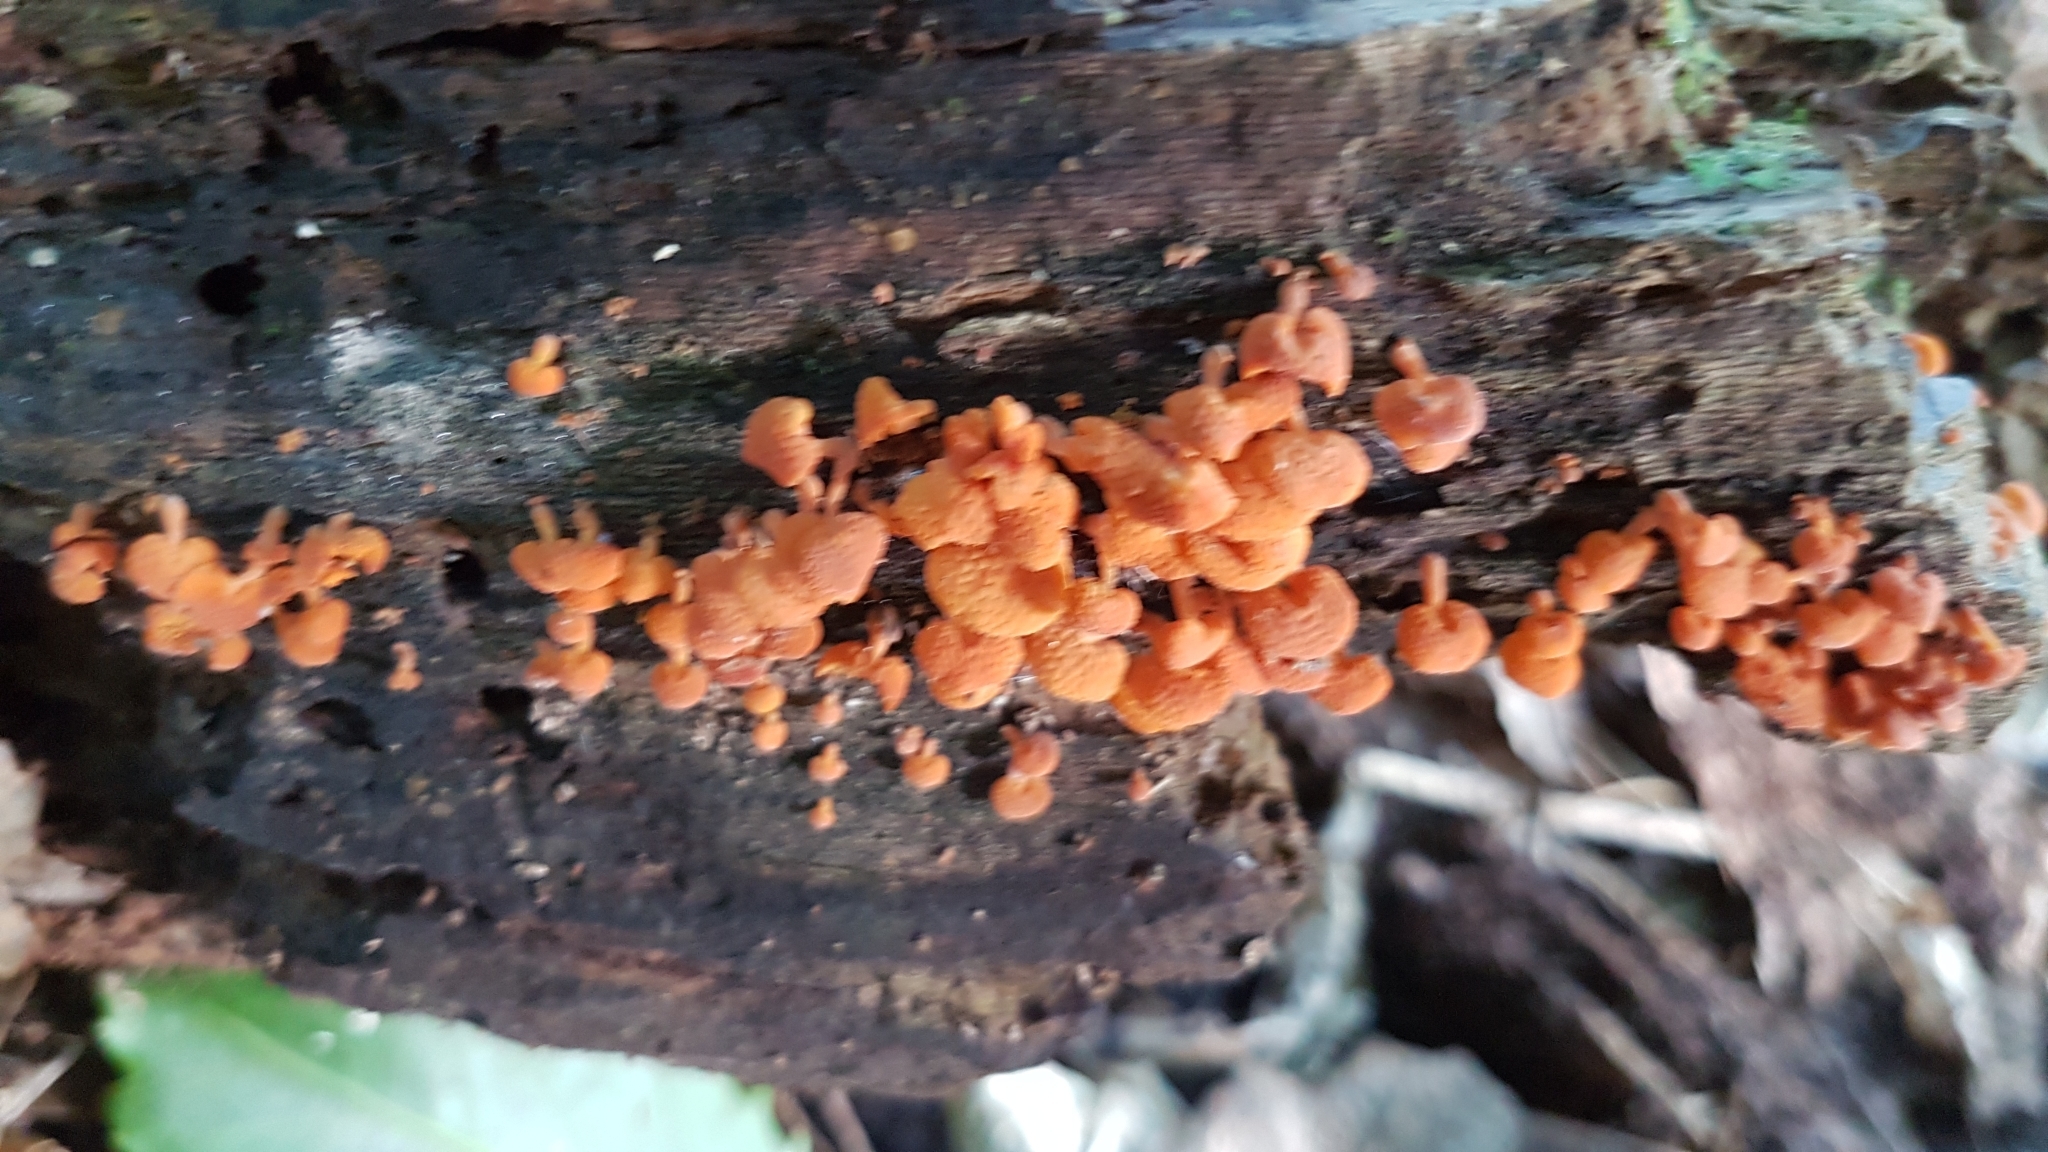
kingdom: Fungi
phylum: Basidiomycota
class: Agaricomycetes
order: Agaricales
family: Mycenaceae
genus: Favolaschia
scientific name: Favolaschia claudopus
